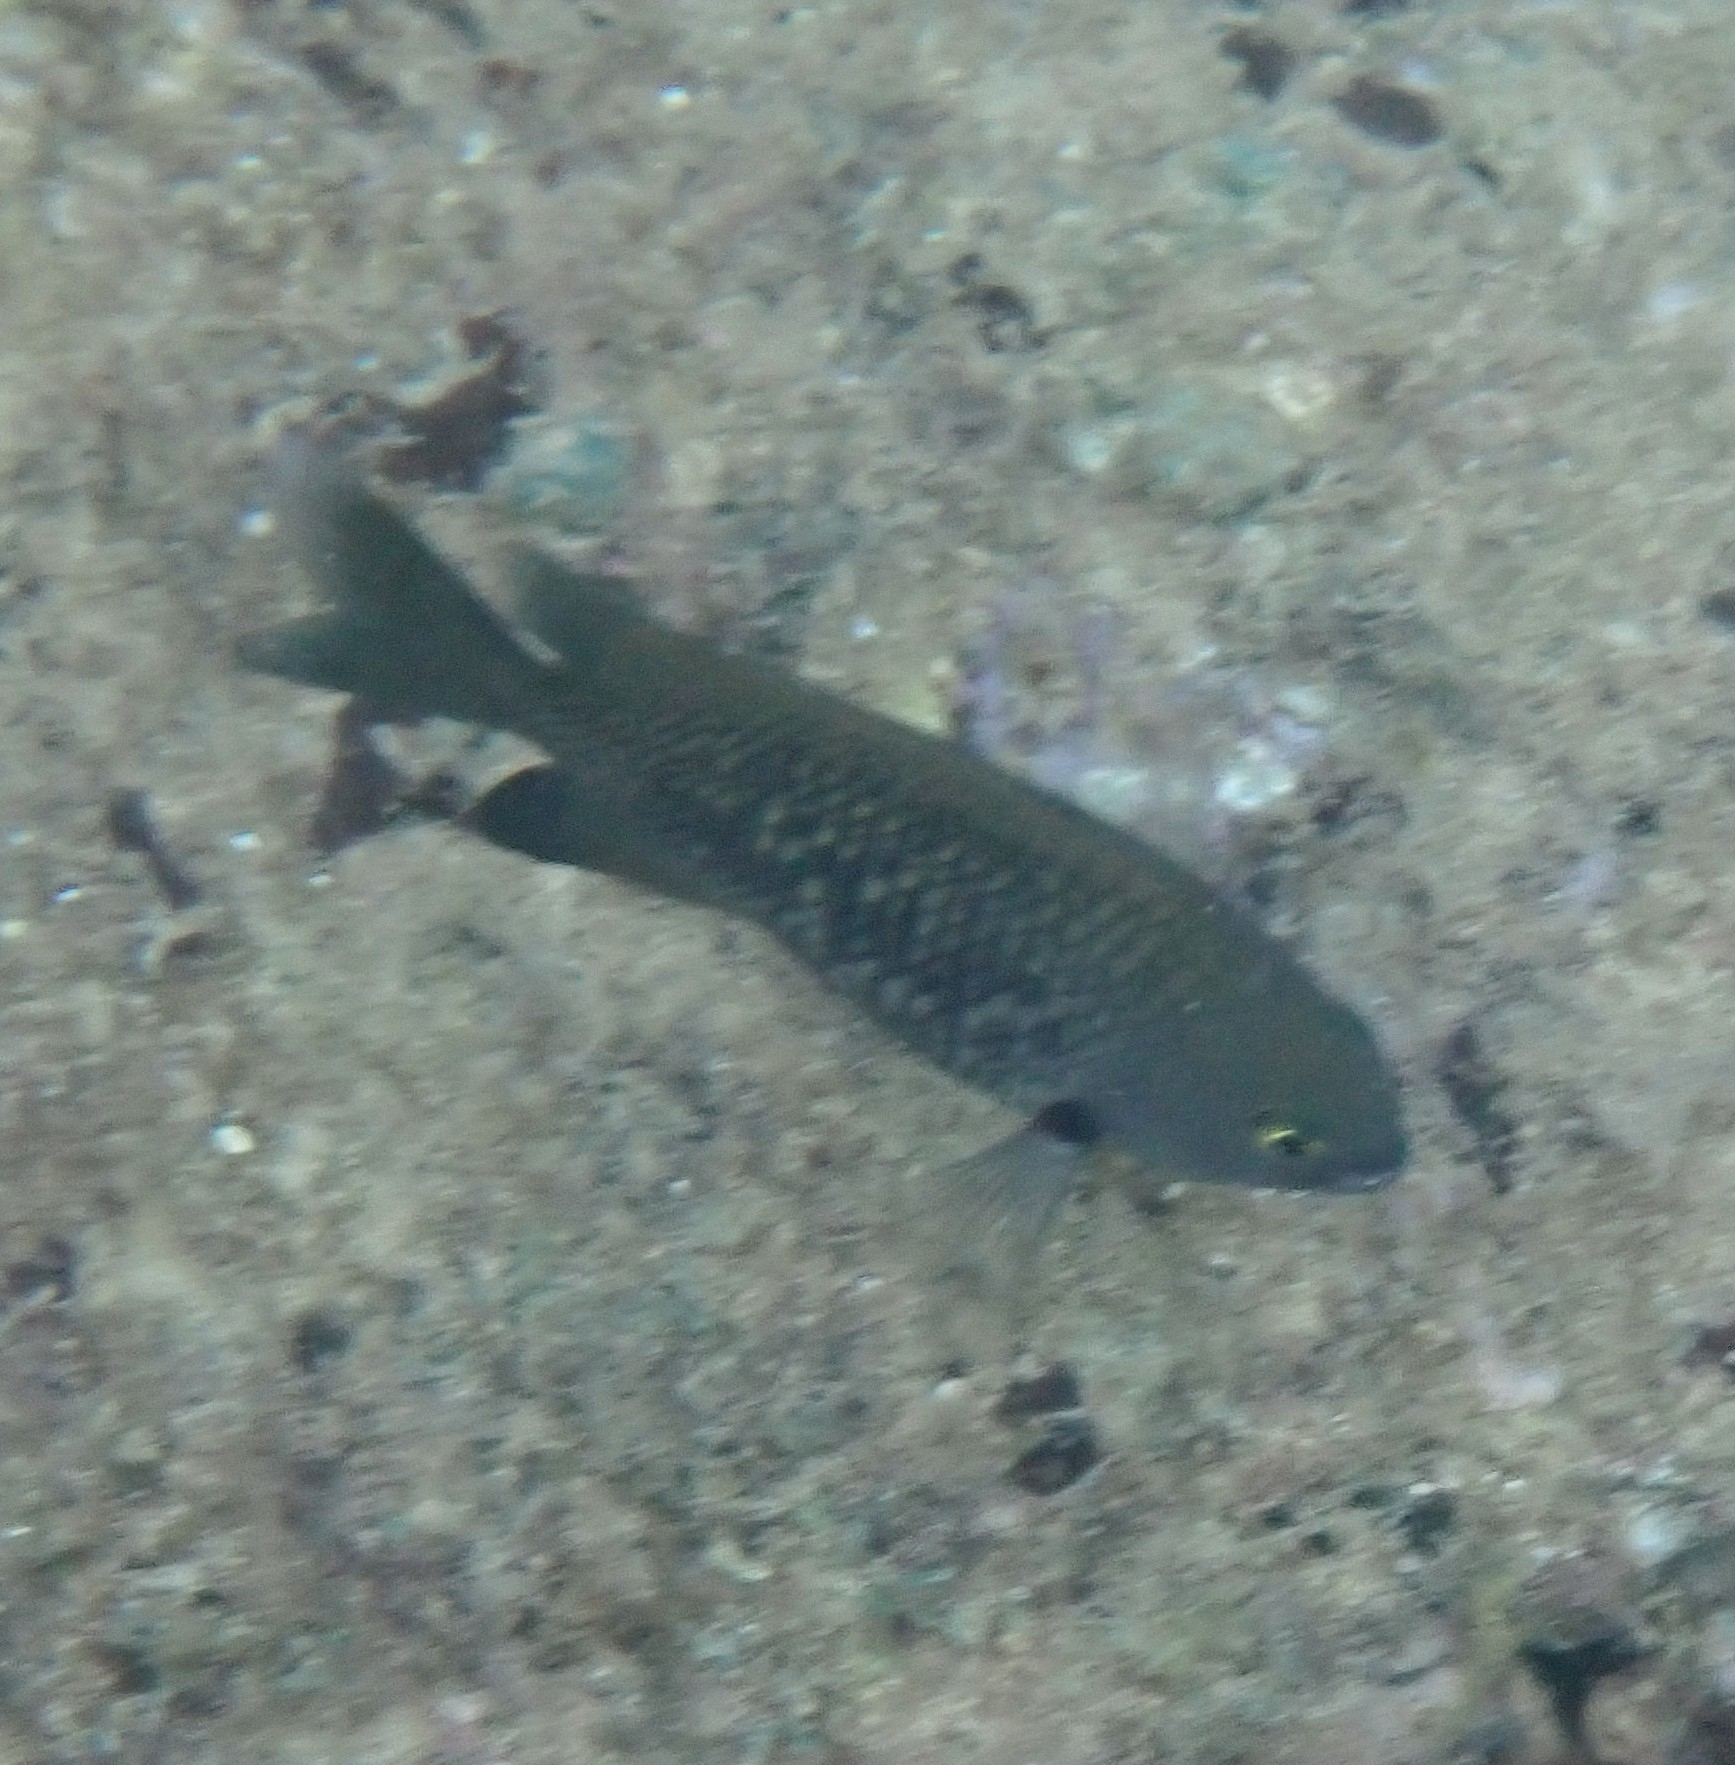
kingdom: Animalia
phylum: Chordata
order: Perciformes
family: Pomacentridae
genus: Stegastes
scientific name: Stegastes fasciolatus
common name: Pacific gregory
